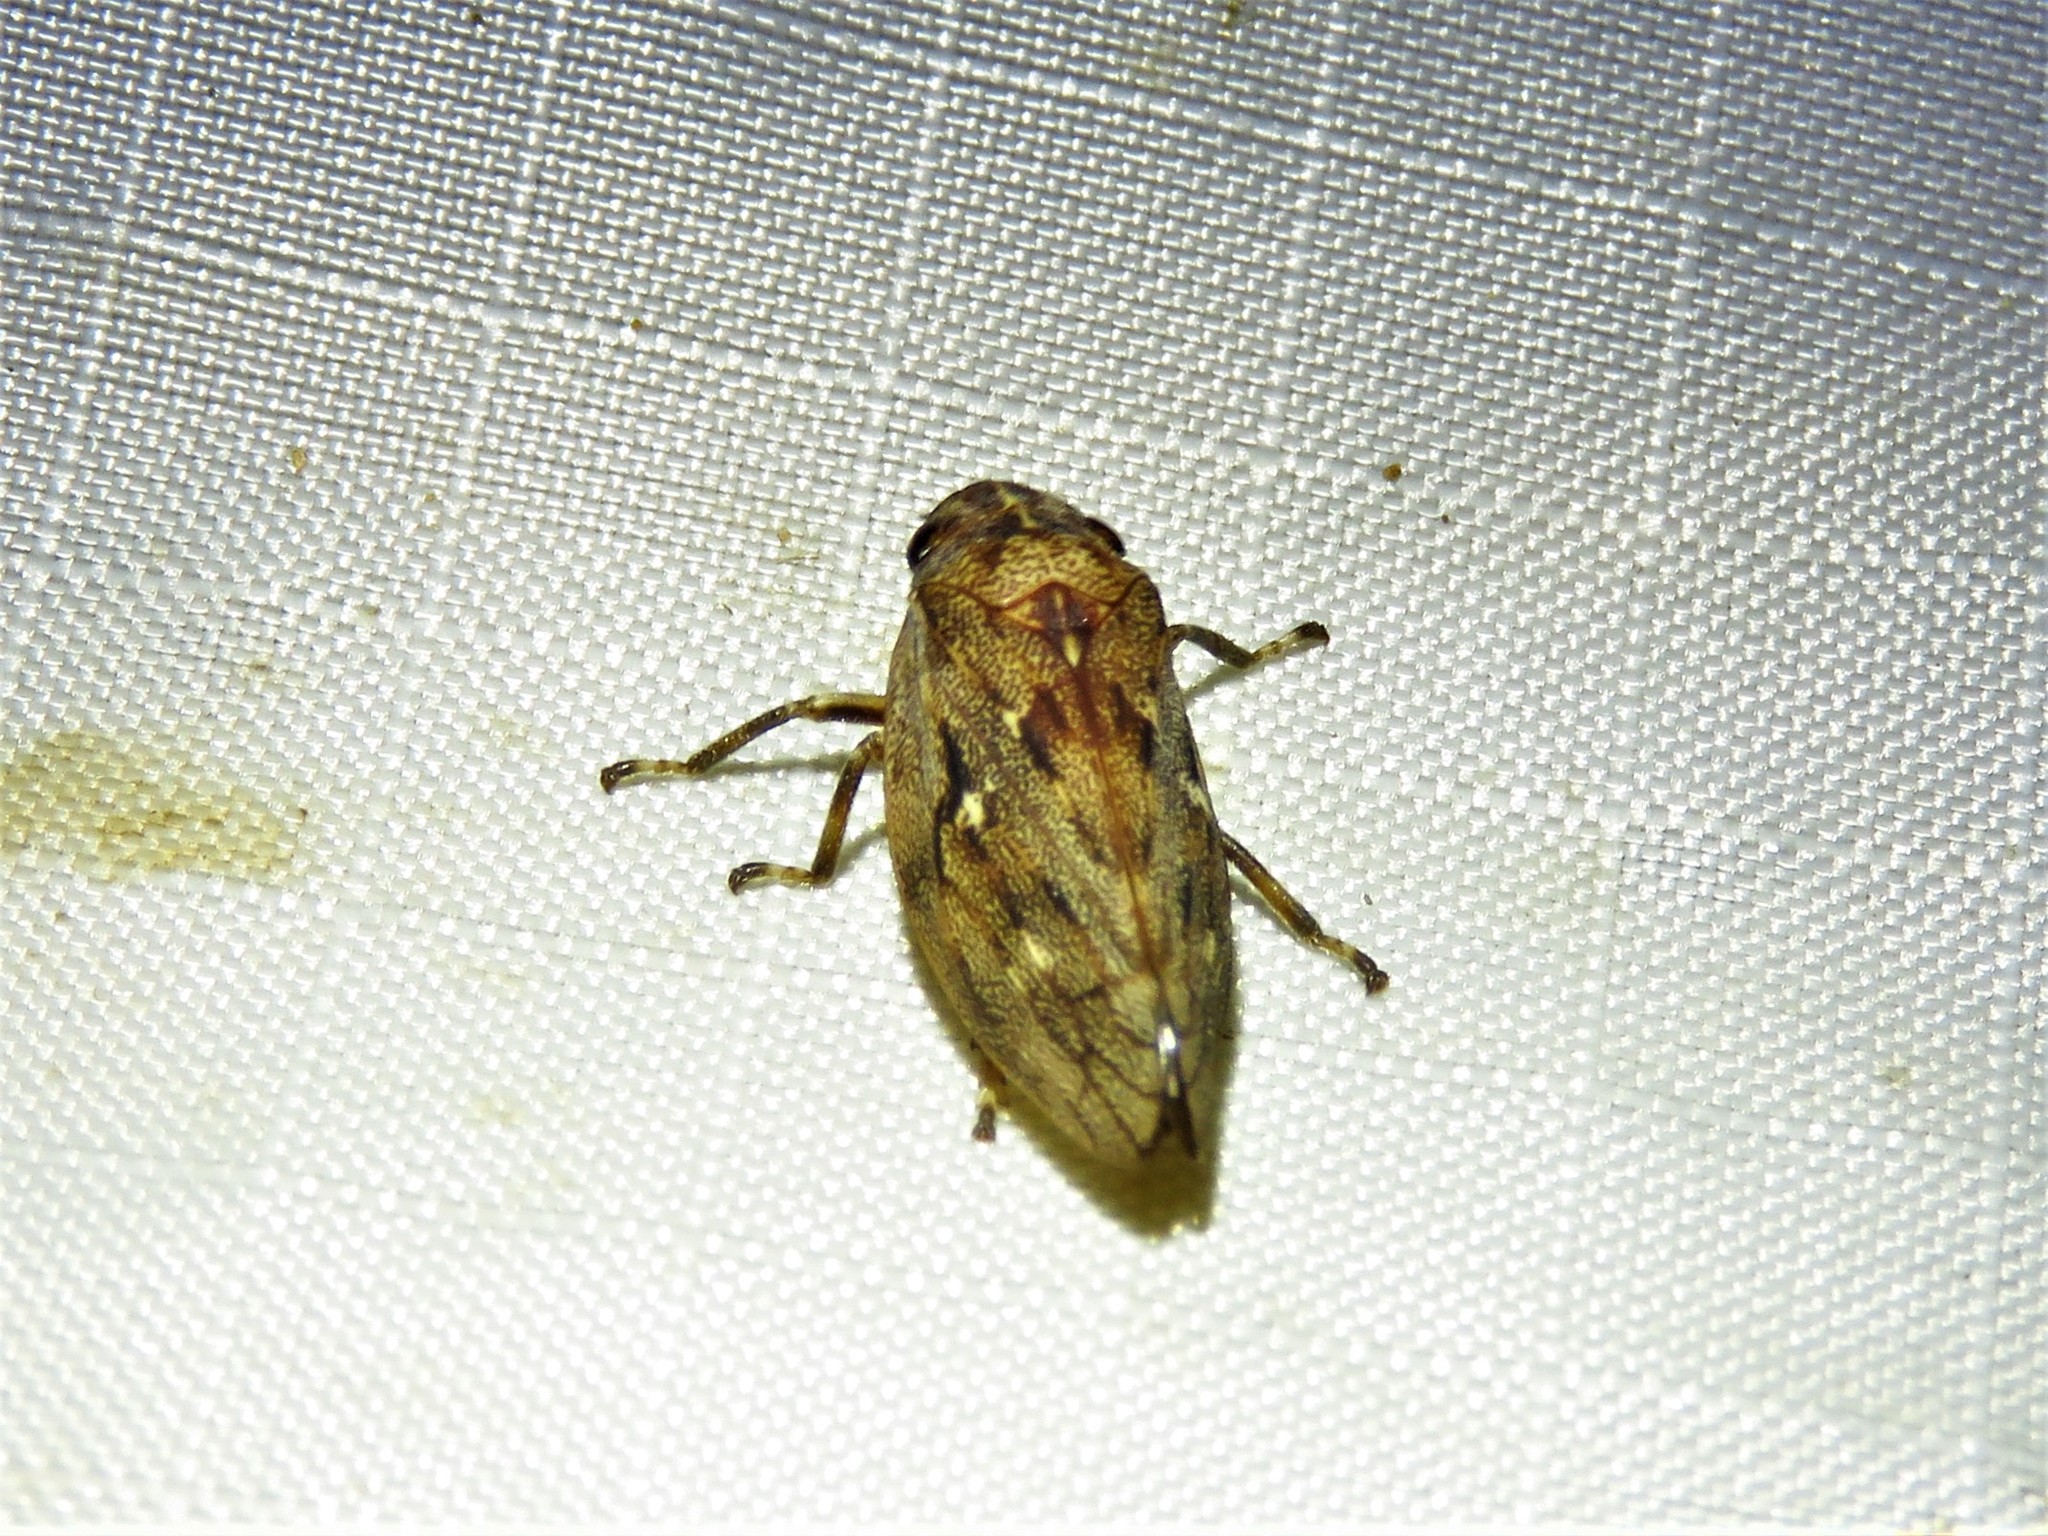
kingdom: Animalia
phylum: Arthropoda
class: Insecta
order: Hemiptera
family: Epipygidae
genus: Epipyga
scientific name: Epipyga cribrata
